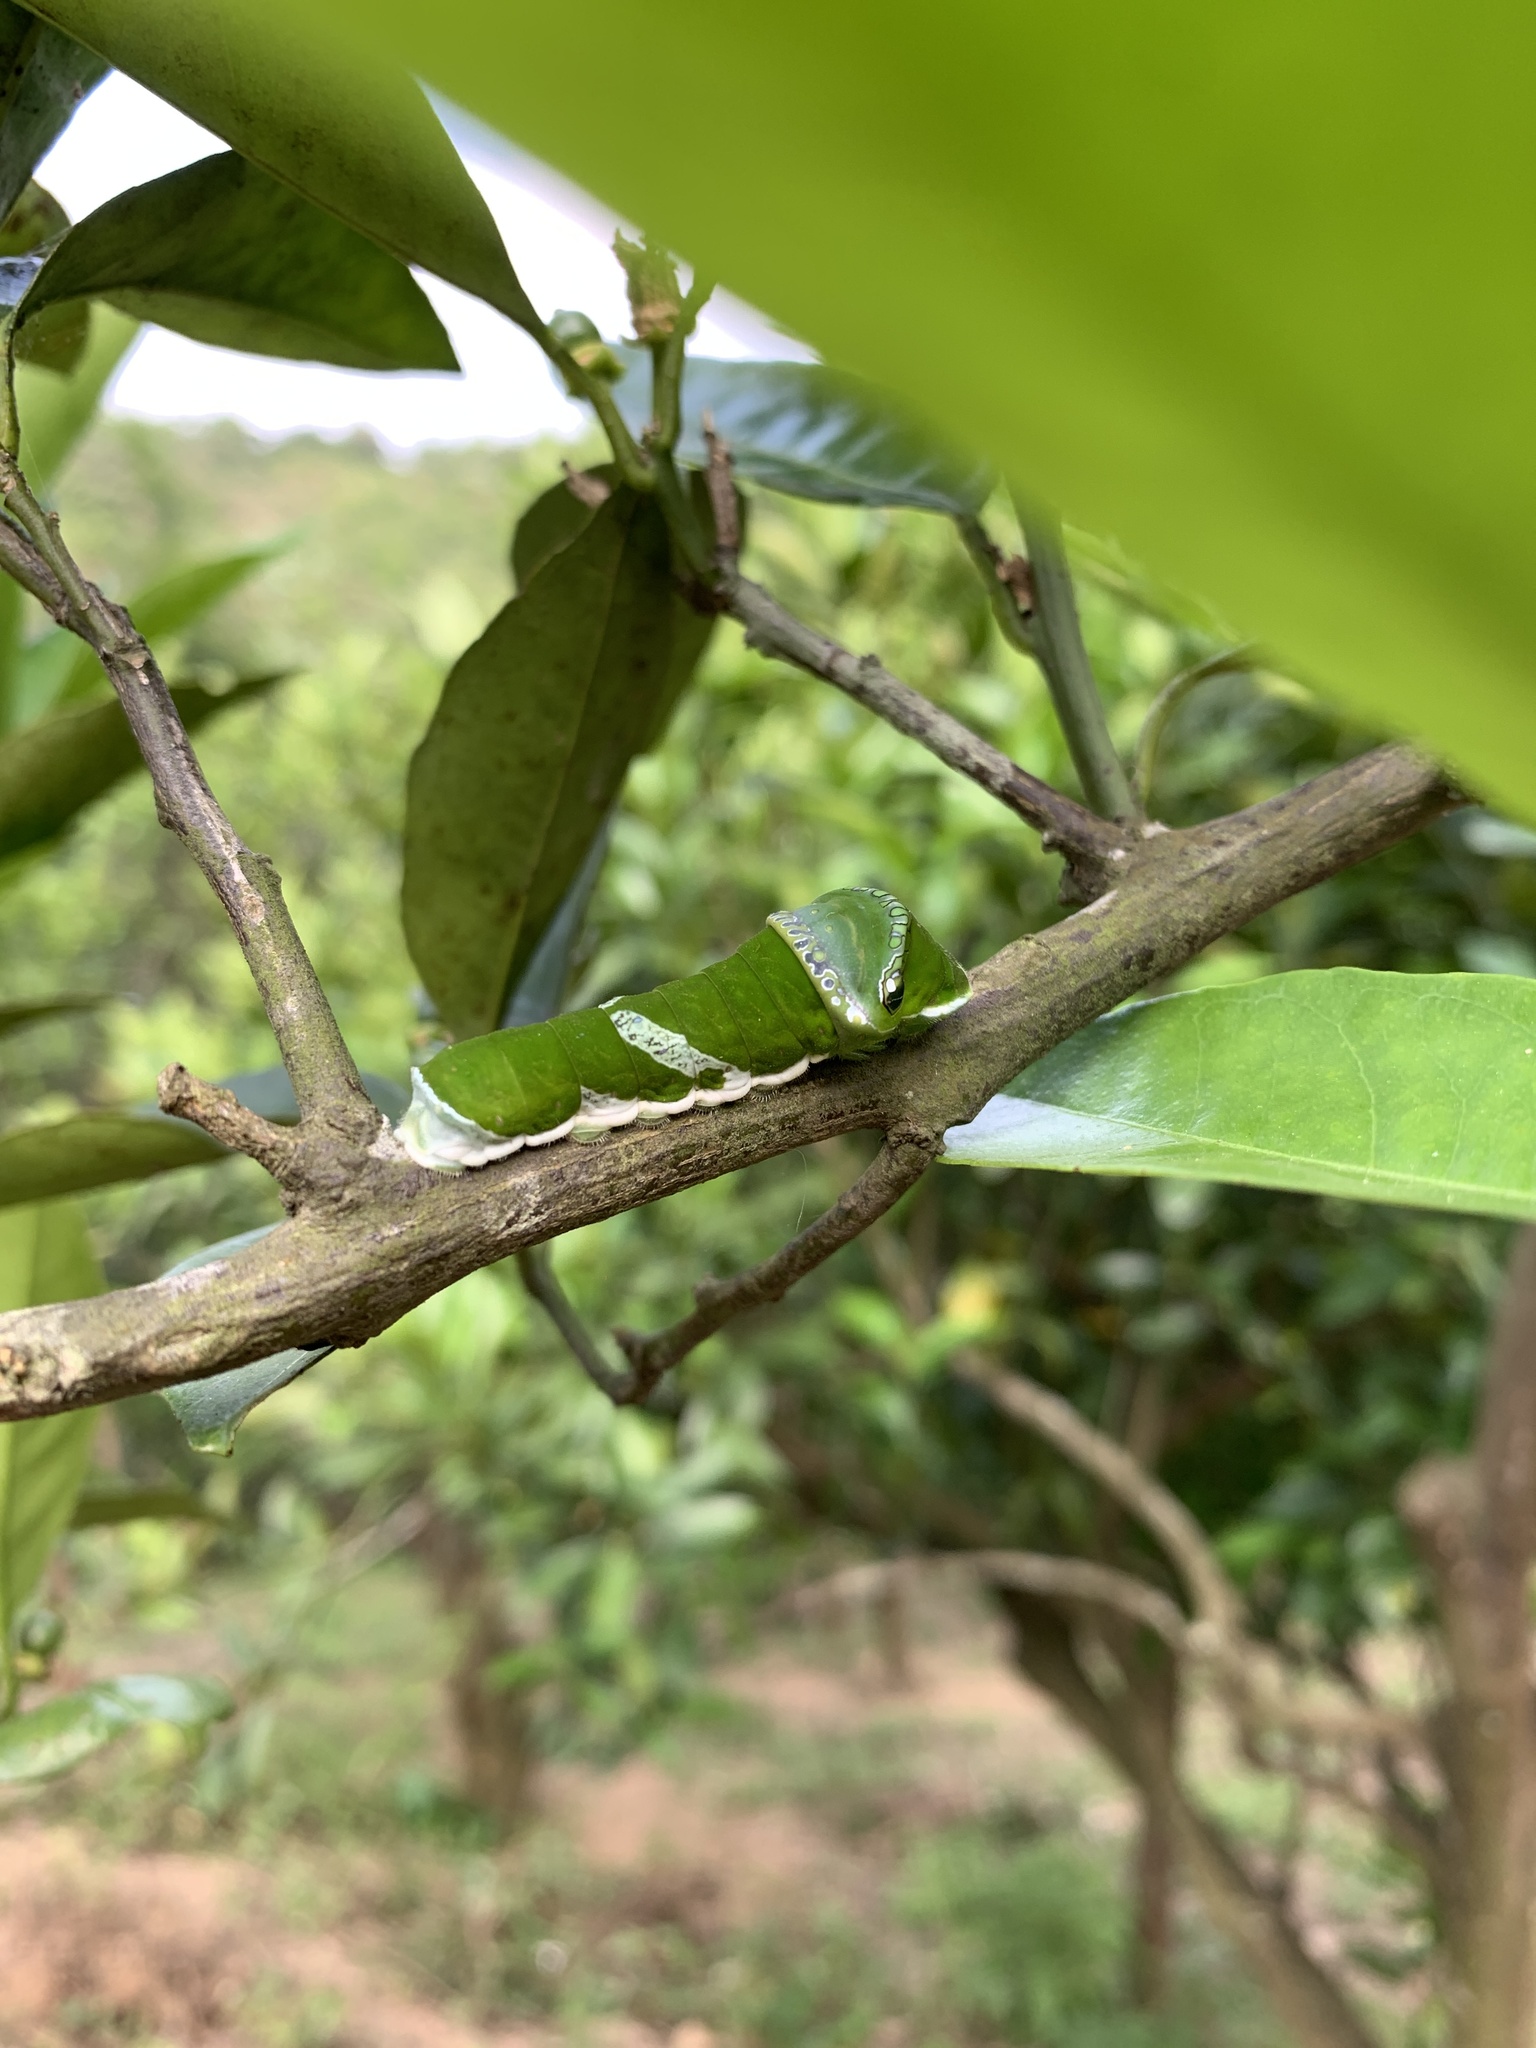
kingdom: Animalia
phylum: Arthropoda
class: Insecta
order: Lepidoptera
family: Papilionidae
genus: Papilio
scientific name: Papilio memnon
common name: Great mormon
